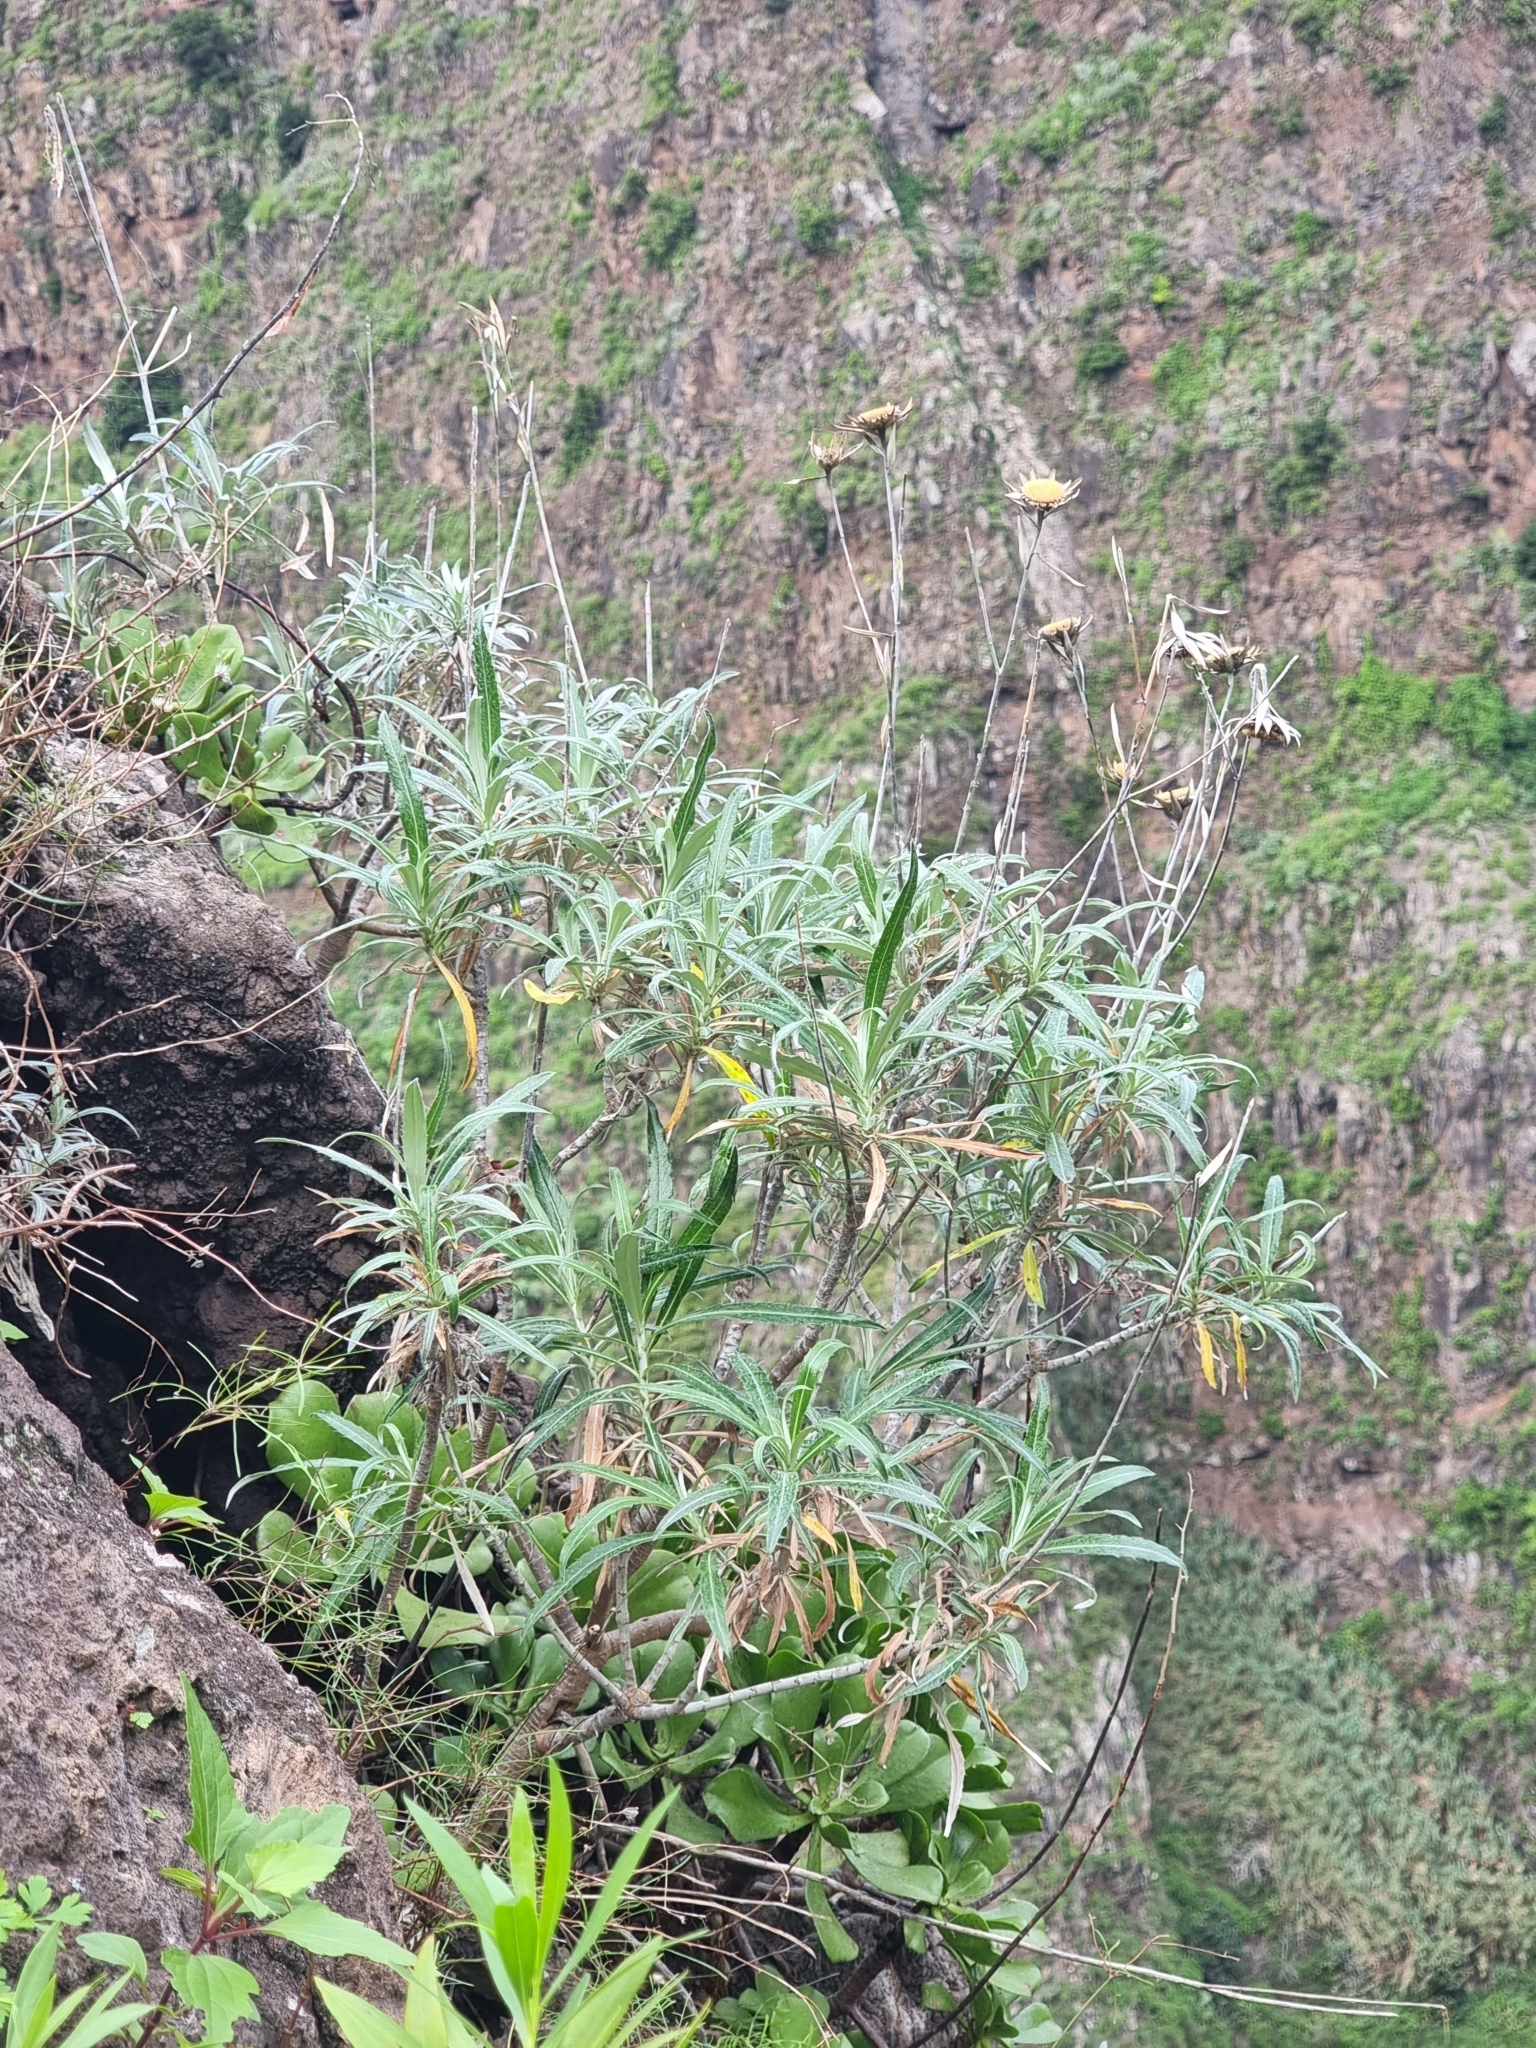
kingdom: Plantae
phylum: Tracheophyta
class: Magnoliopsida
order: Asterales
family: Asteraceae
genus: Carlina
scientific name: Carlina salicifolia
